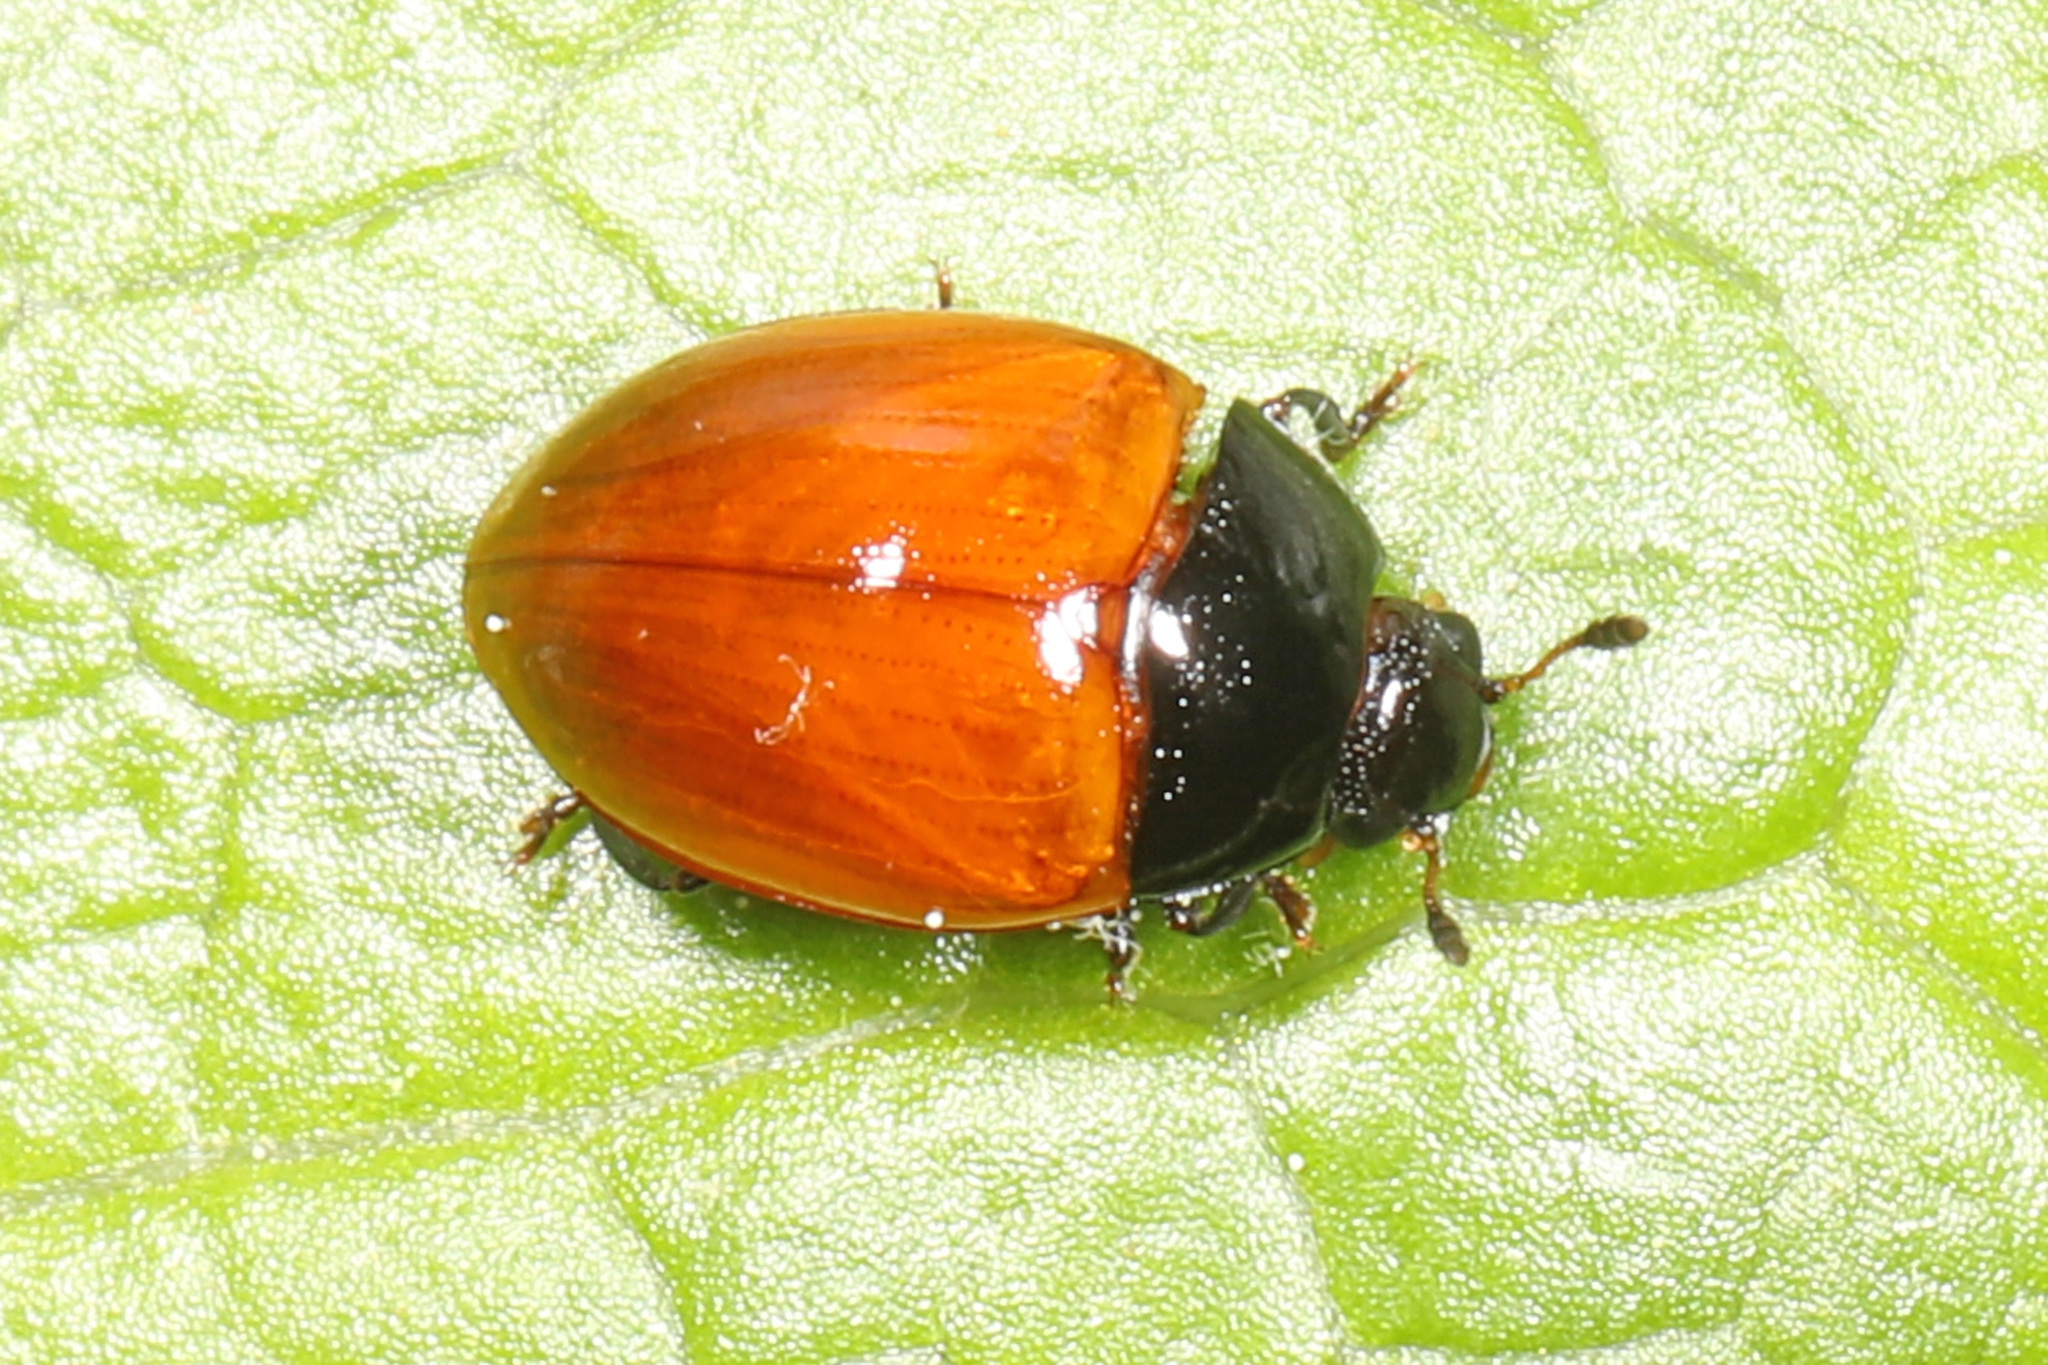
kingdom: Animalia
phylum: Arthropoda
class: Insecta
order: Coleoptera
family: Erotylidae
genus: Tritoma
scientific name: Tritoma sanguinipennis
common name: Red-winged tritoma
